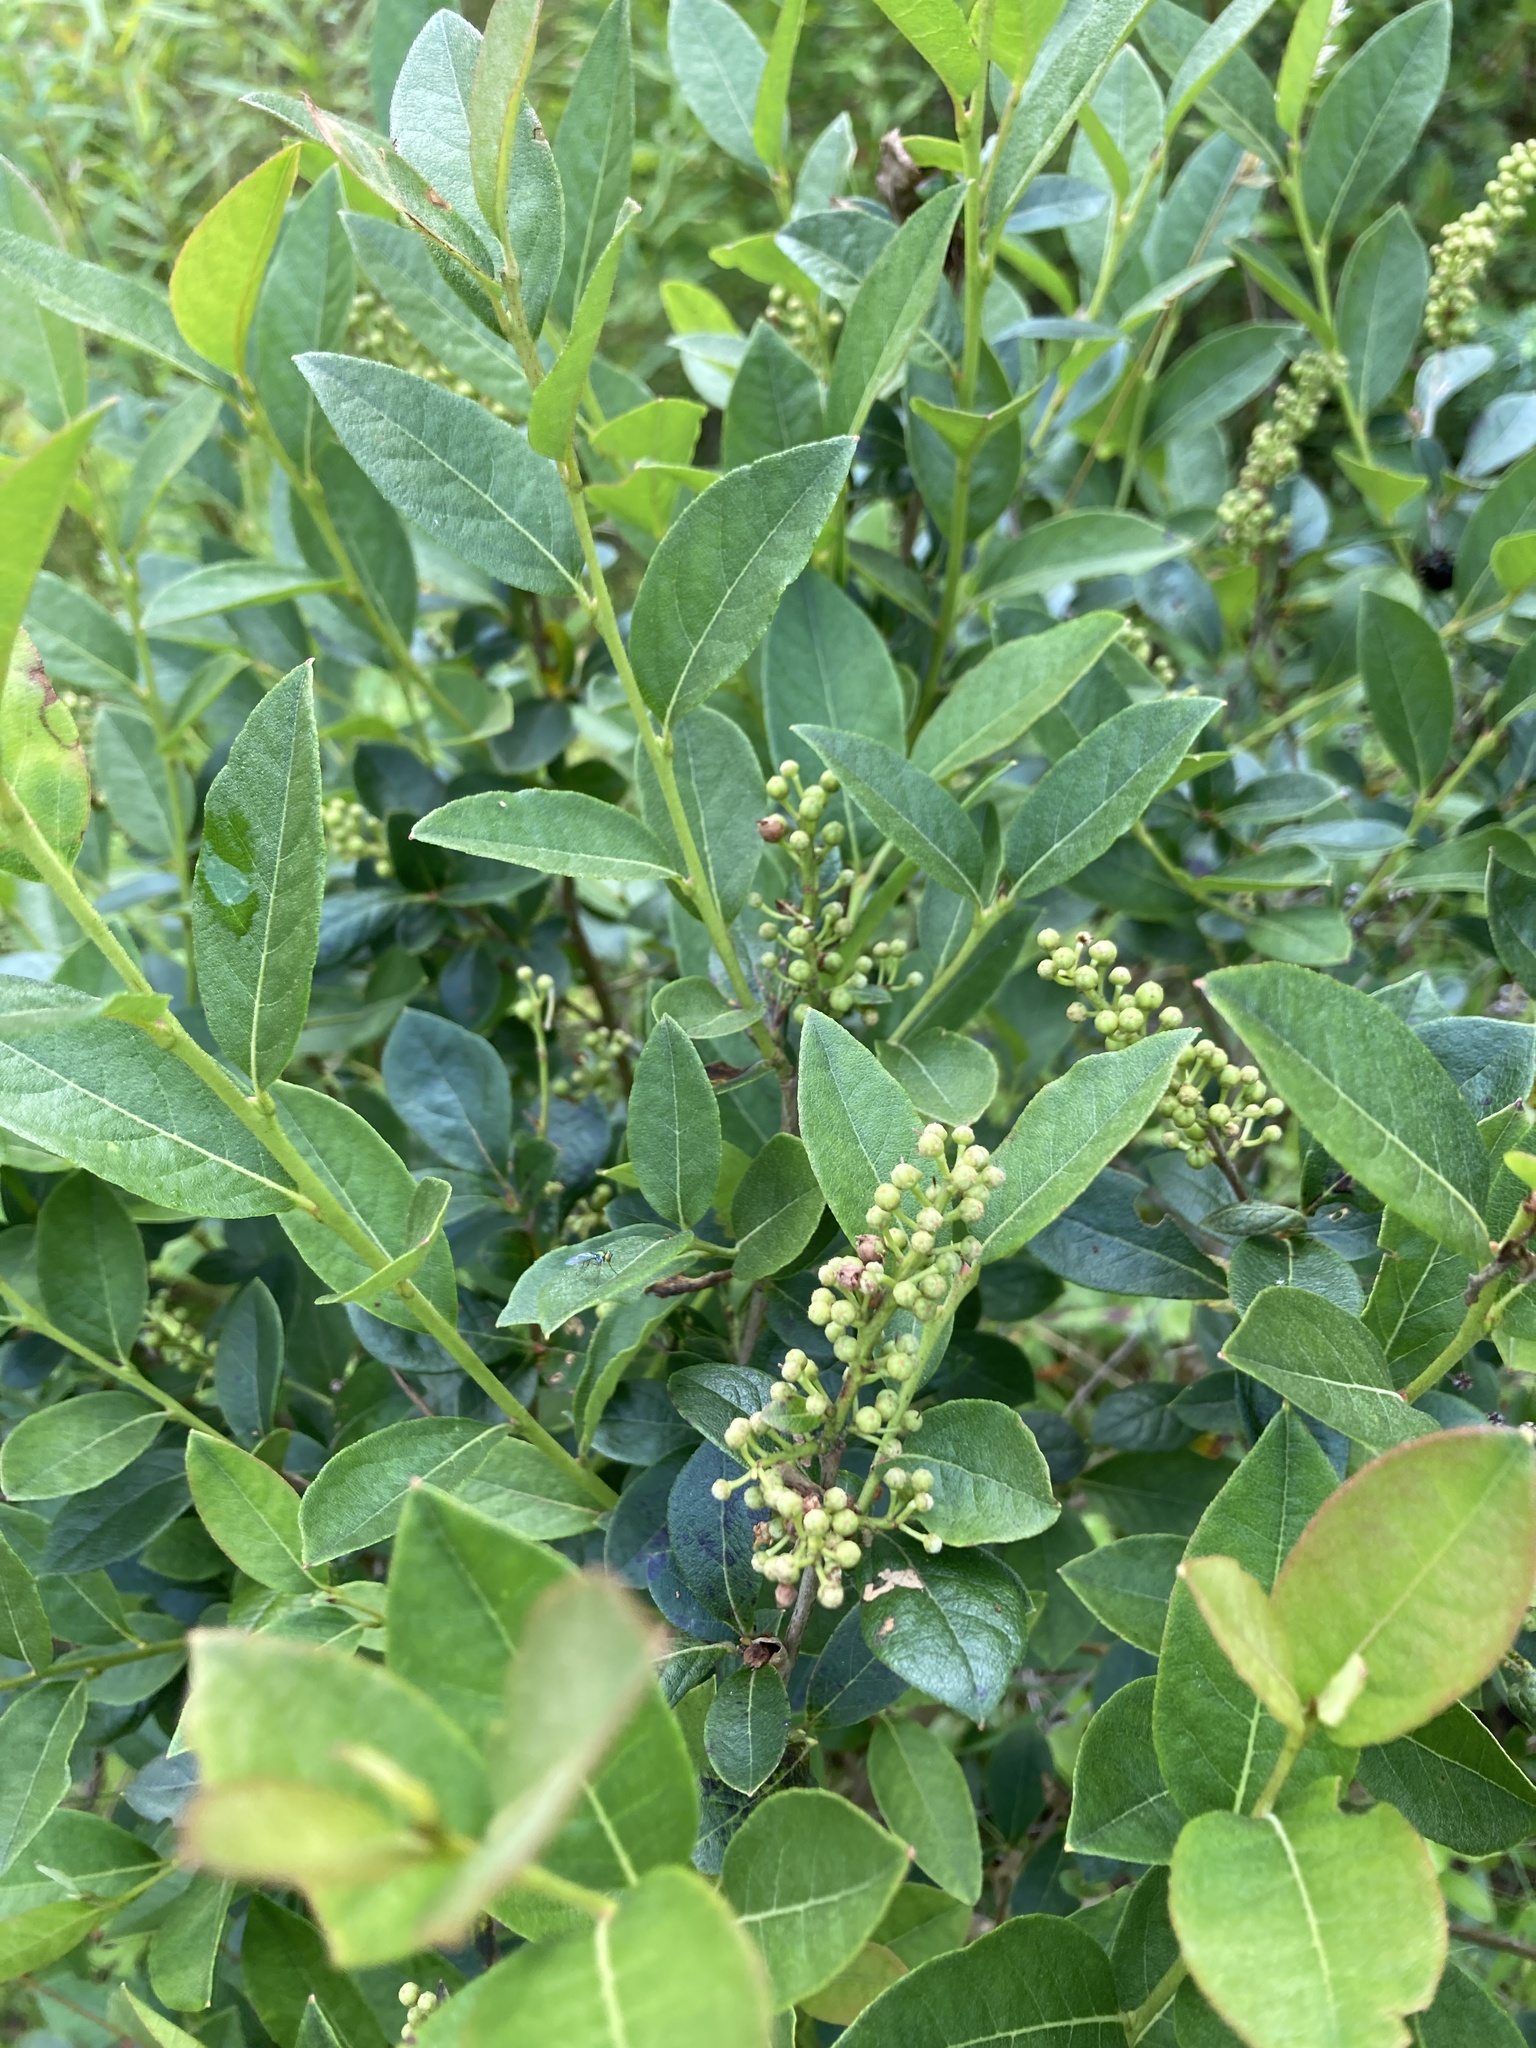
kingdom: Plantae
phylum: Tracheophyta
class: Magnoliopsida
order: Ericales
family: Ericaceae
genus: Lyonia
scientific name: Lyonia ligustrina
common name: Maleberry
